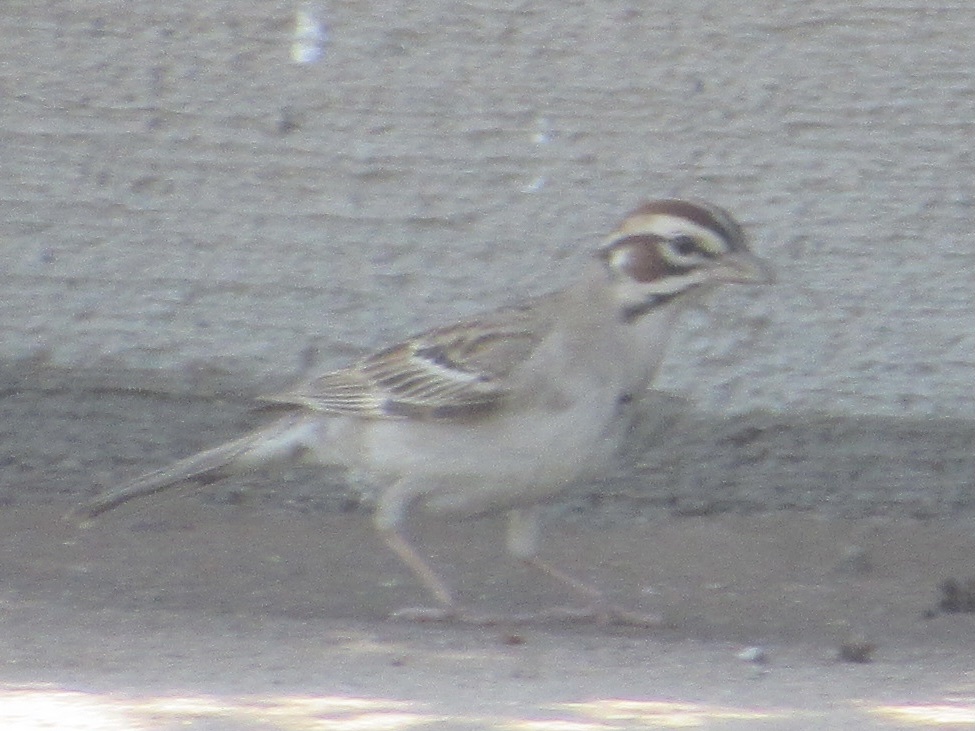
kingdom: Animalia
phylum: Chordata
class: Aves
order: Passeriformes
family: Passerellidae
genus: Chondestes
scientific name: Chondestes grammacus
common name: Lark sparrow
